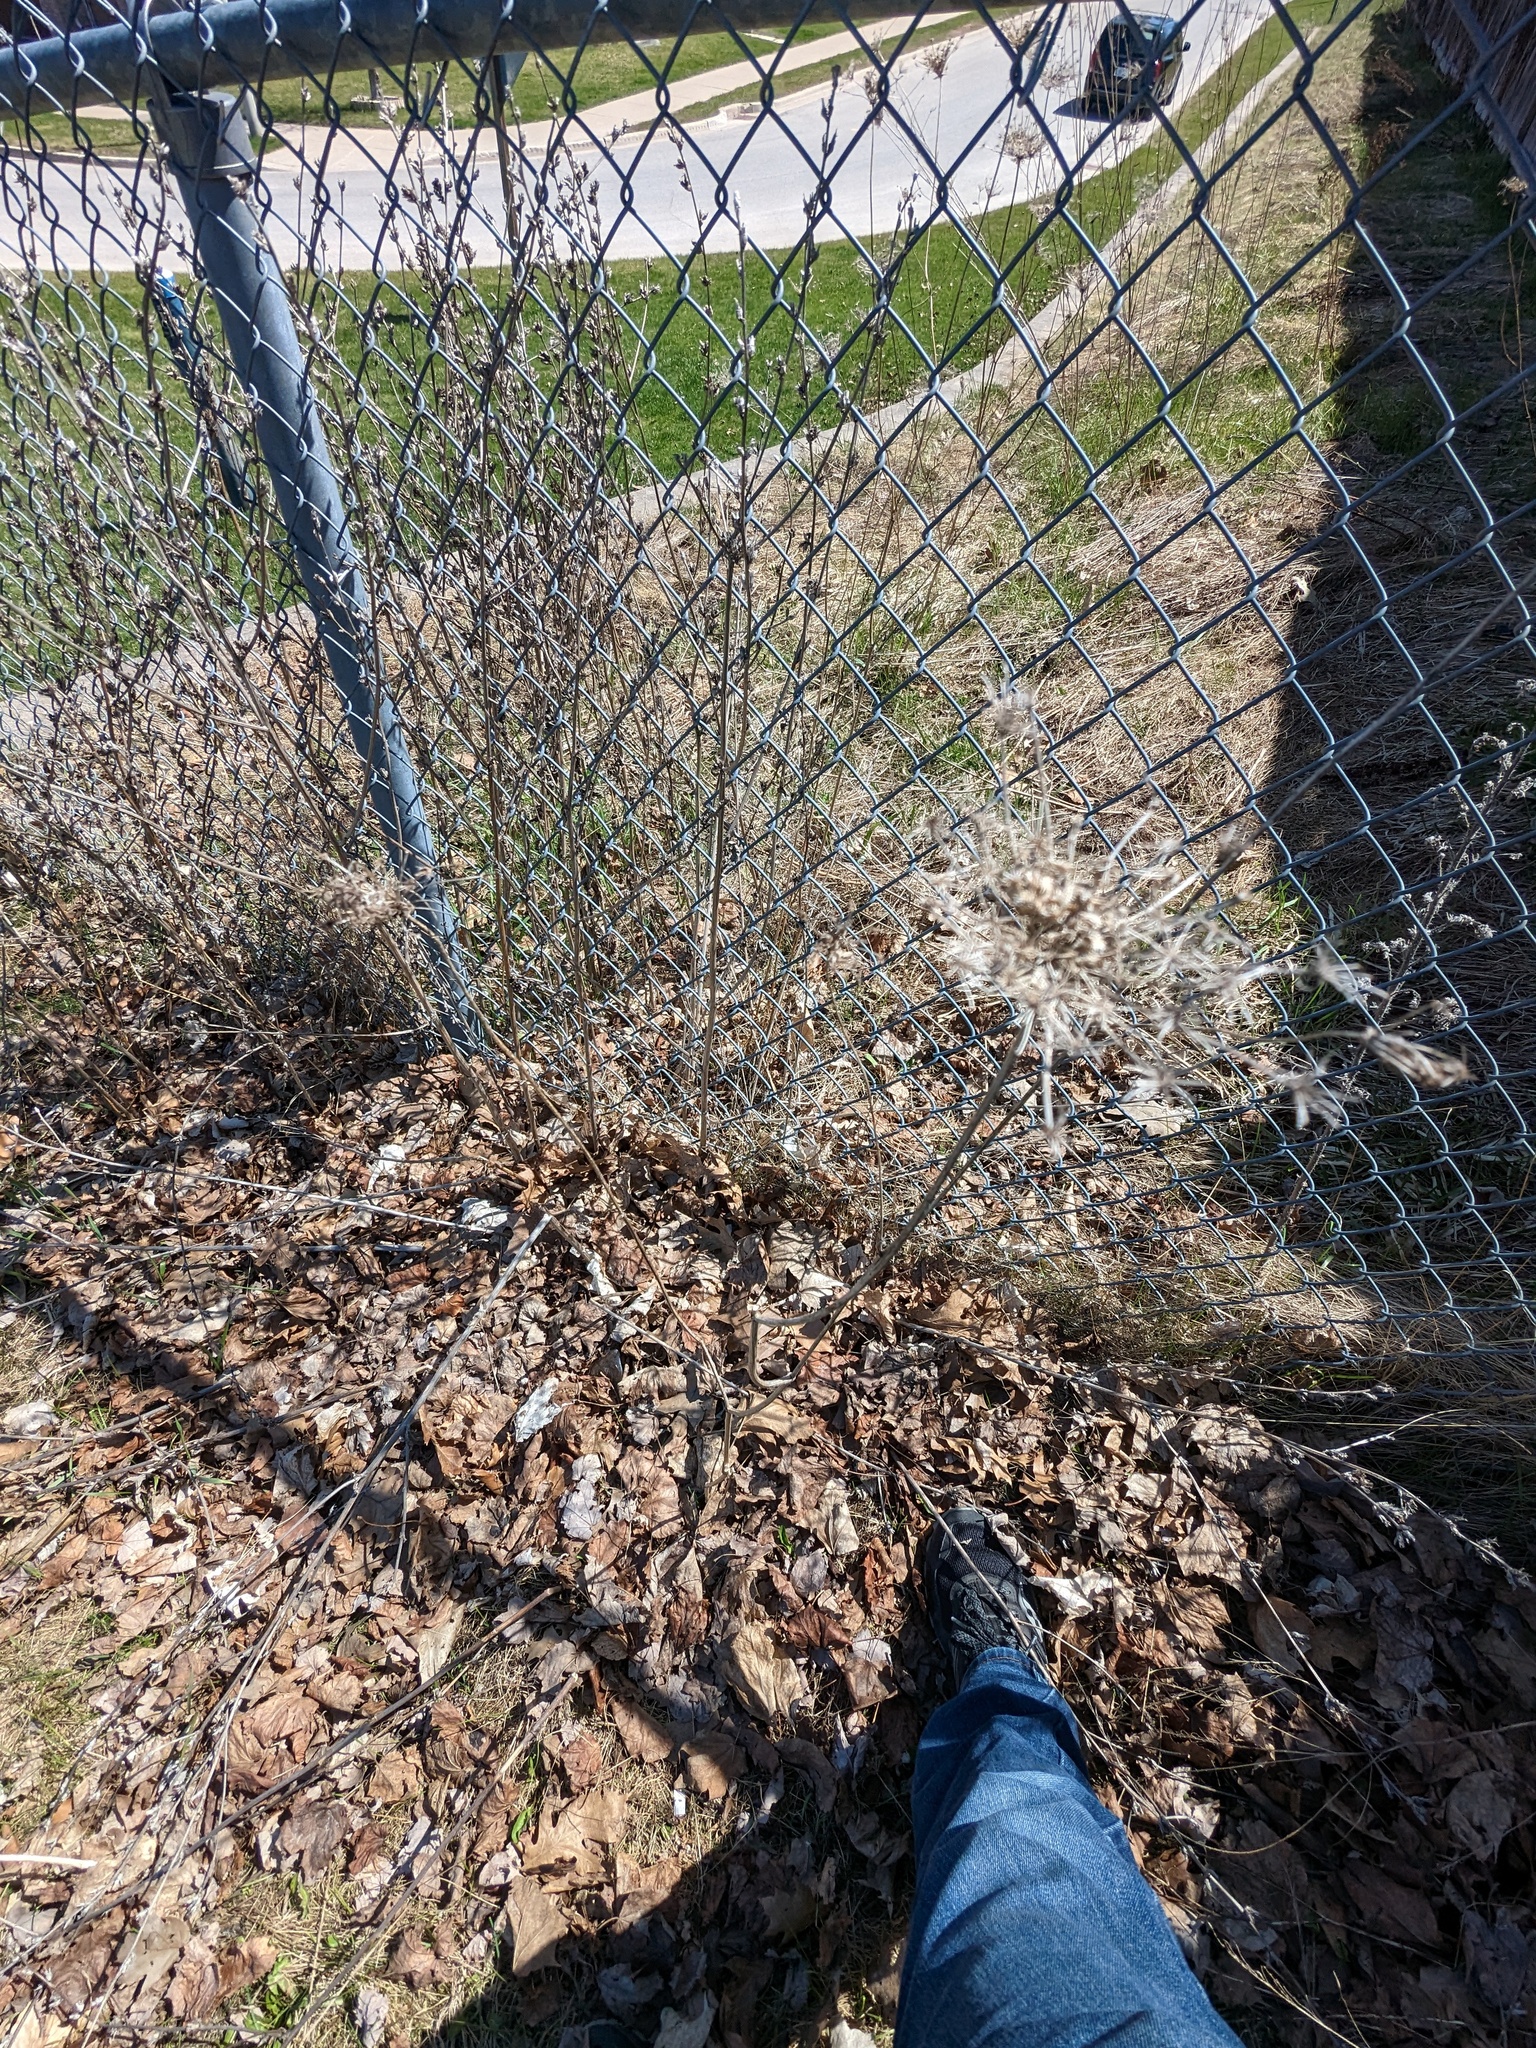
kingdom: Plantae
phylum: Tracheophyta
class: Magnoliopsida
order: Apiales
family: Apiaceae
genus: Daucus
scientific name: Daucus carota
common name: Wild carrot
